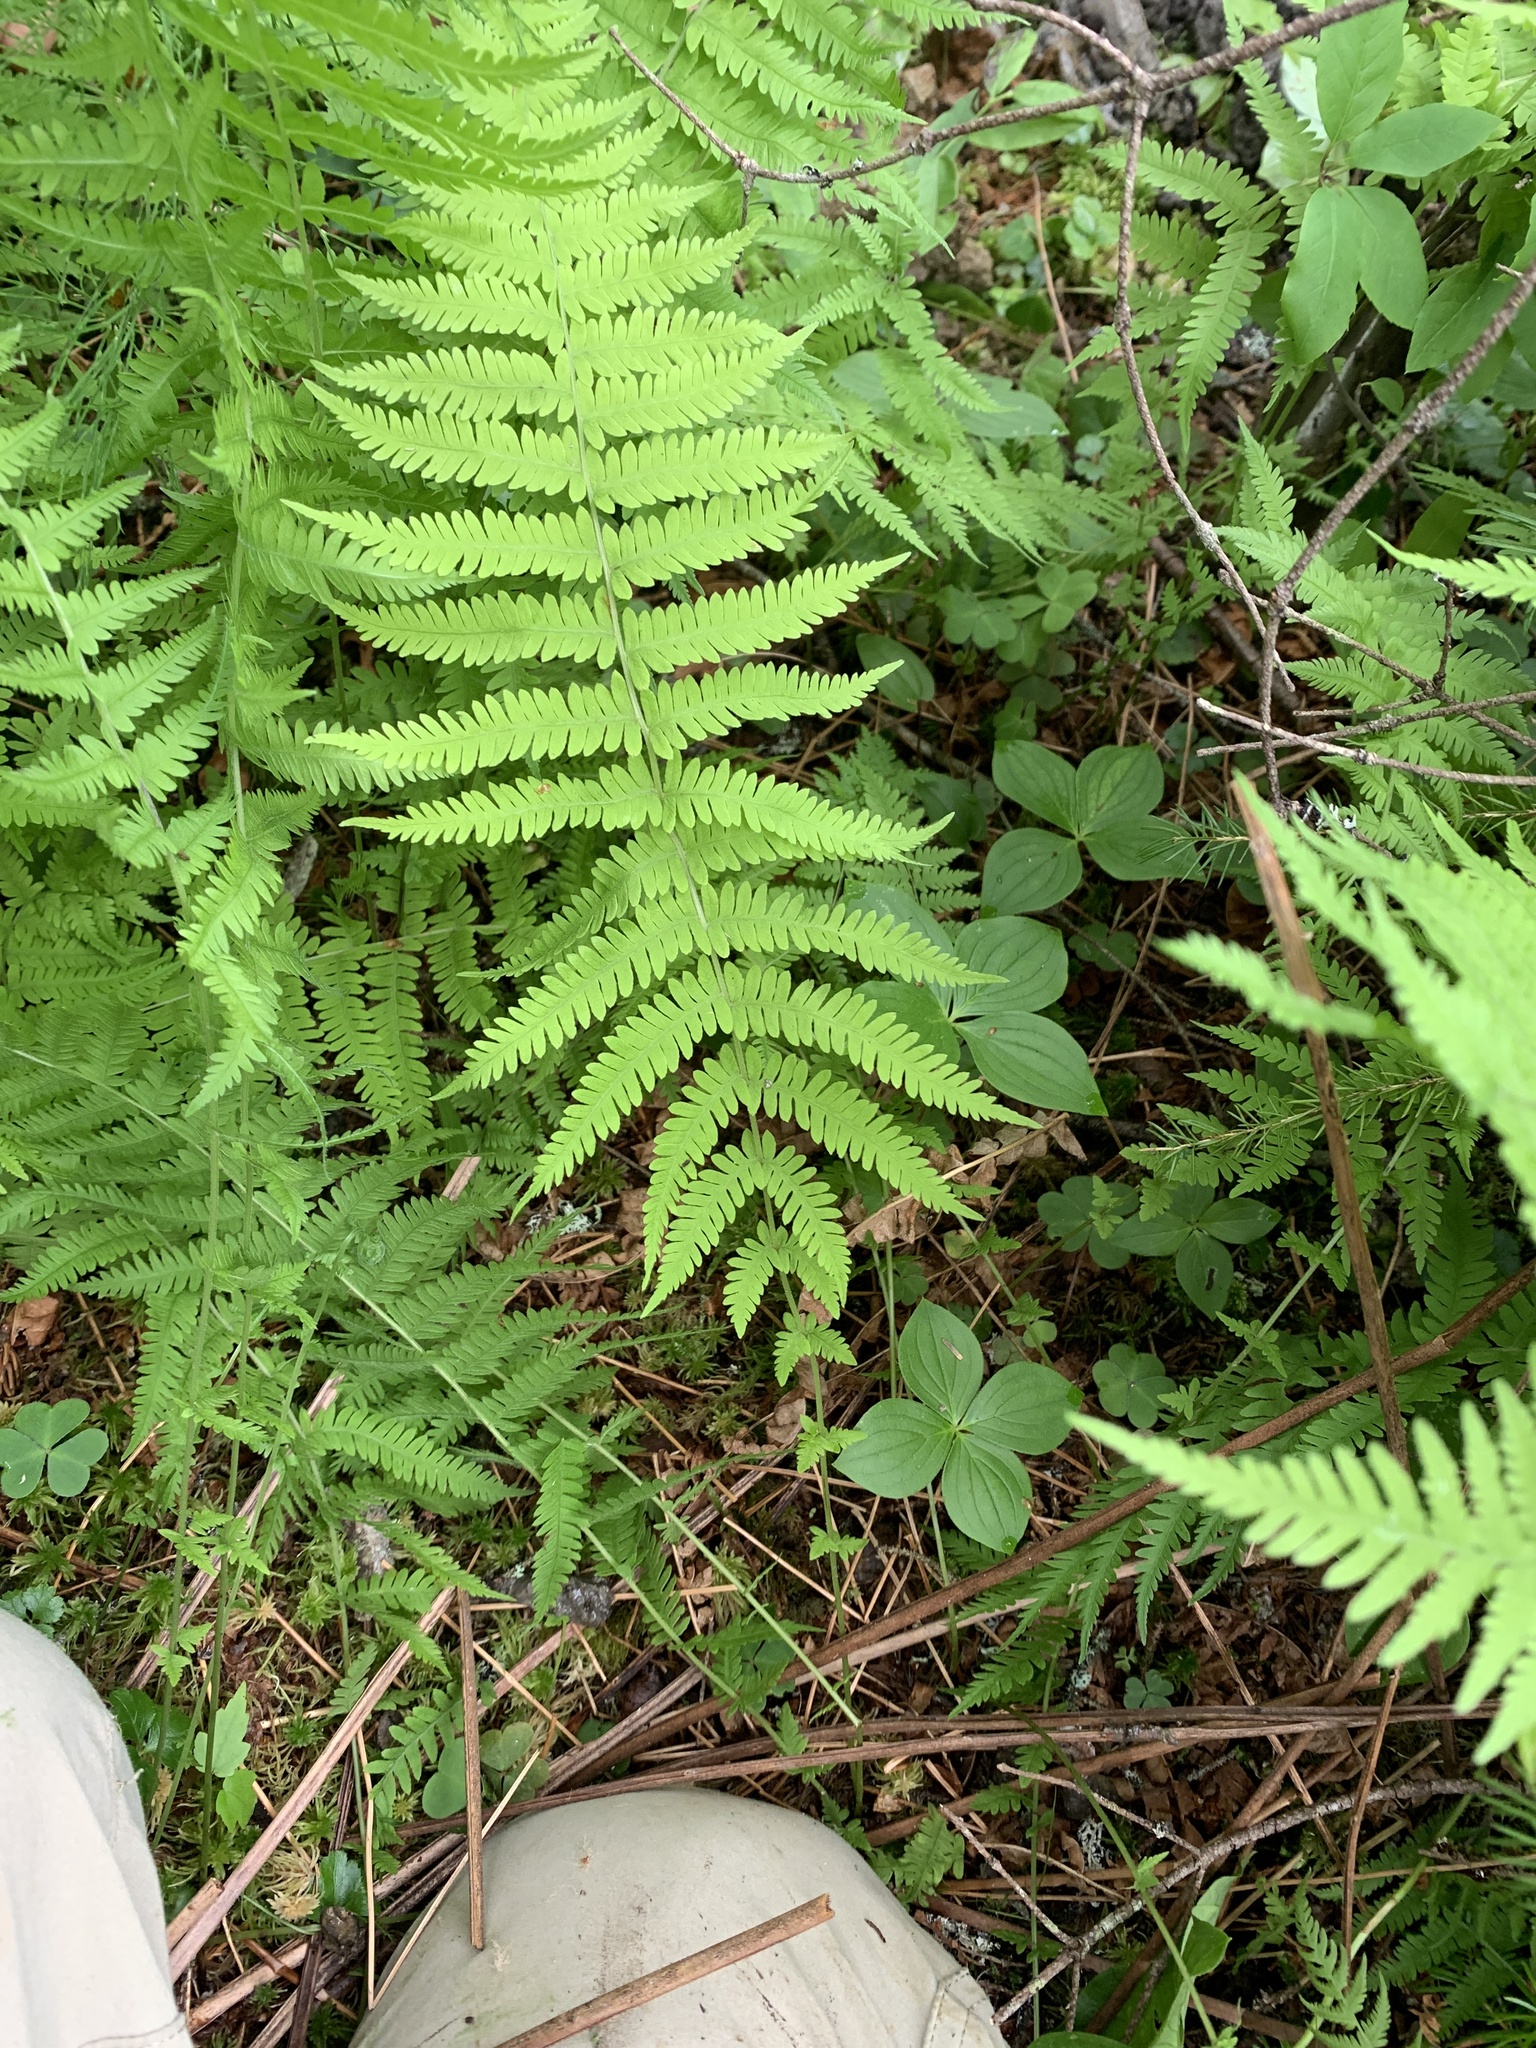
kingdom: Plantae
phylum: Tracheophyta
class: Polypodiopsida
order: Polypodiales
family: Thelypteridaceae
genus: Amauropelta
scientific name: Amauropelta noveboracensis
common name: New york fern
